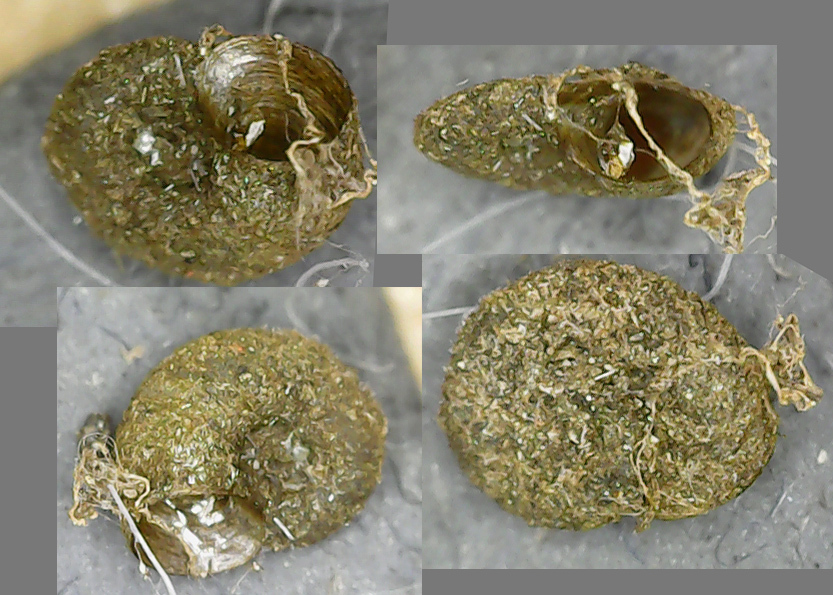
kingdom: Animalia
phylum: Mollusca
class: Gastropoda
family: Planorbidae
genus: Armiger
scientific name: Armiger crista
